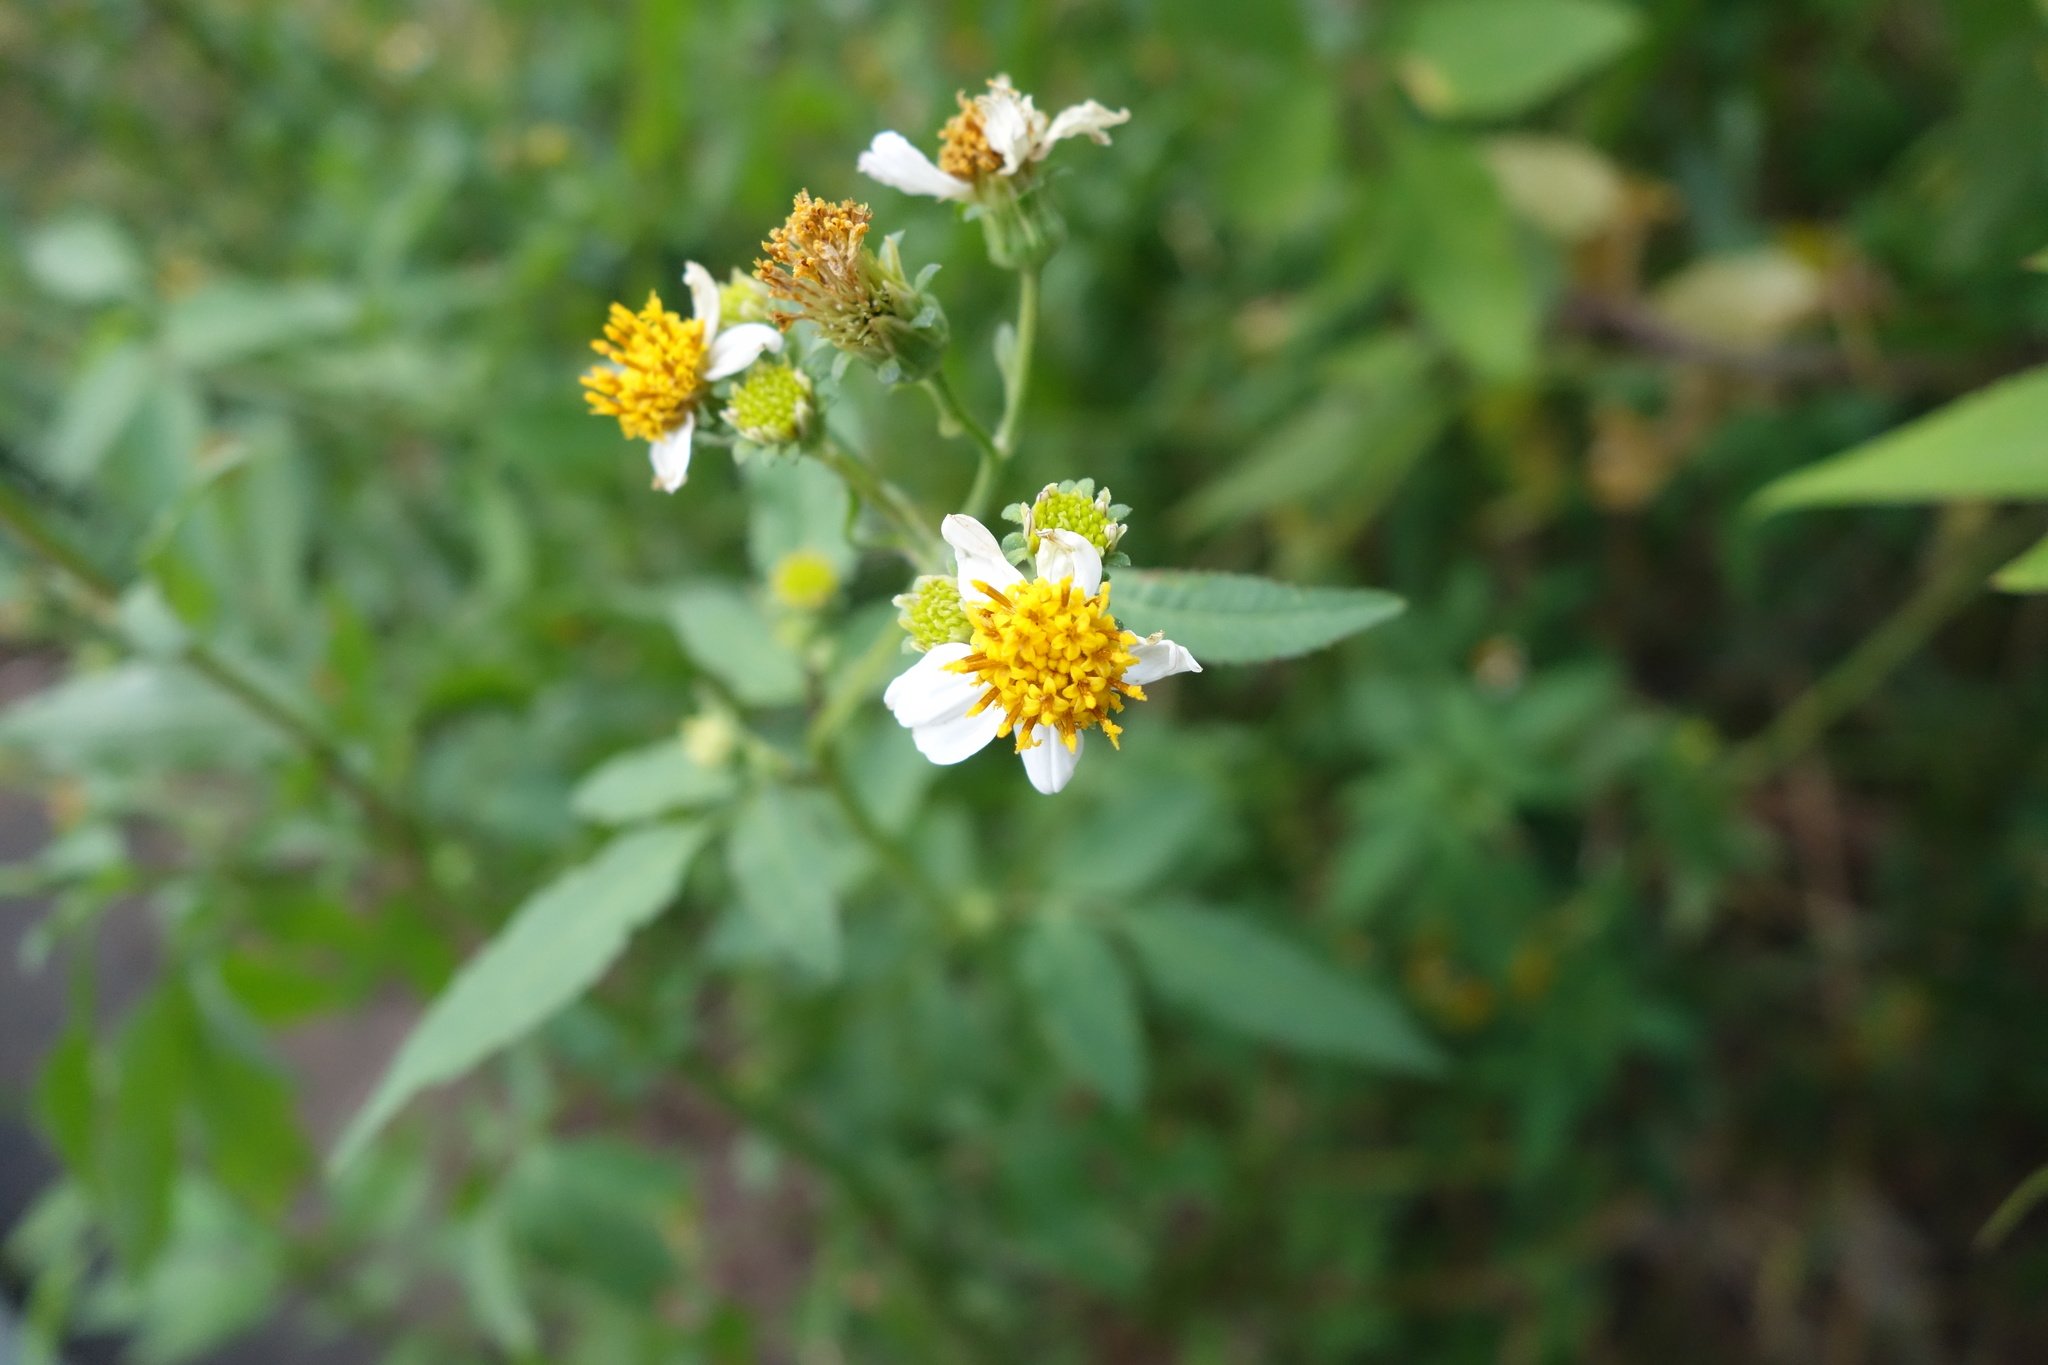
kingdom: Plantae
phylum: Tracheophyta
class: Magnoliopsida
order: Asterales
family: Asteraceae
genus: Bidens
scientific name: Bidens alba
